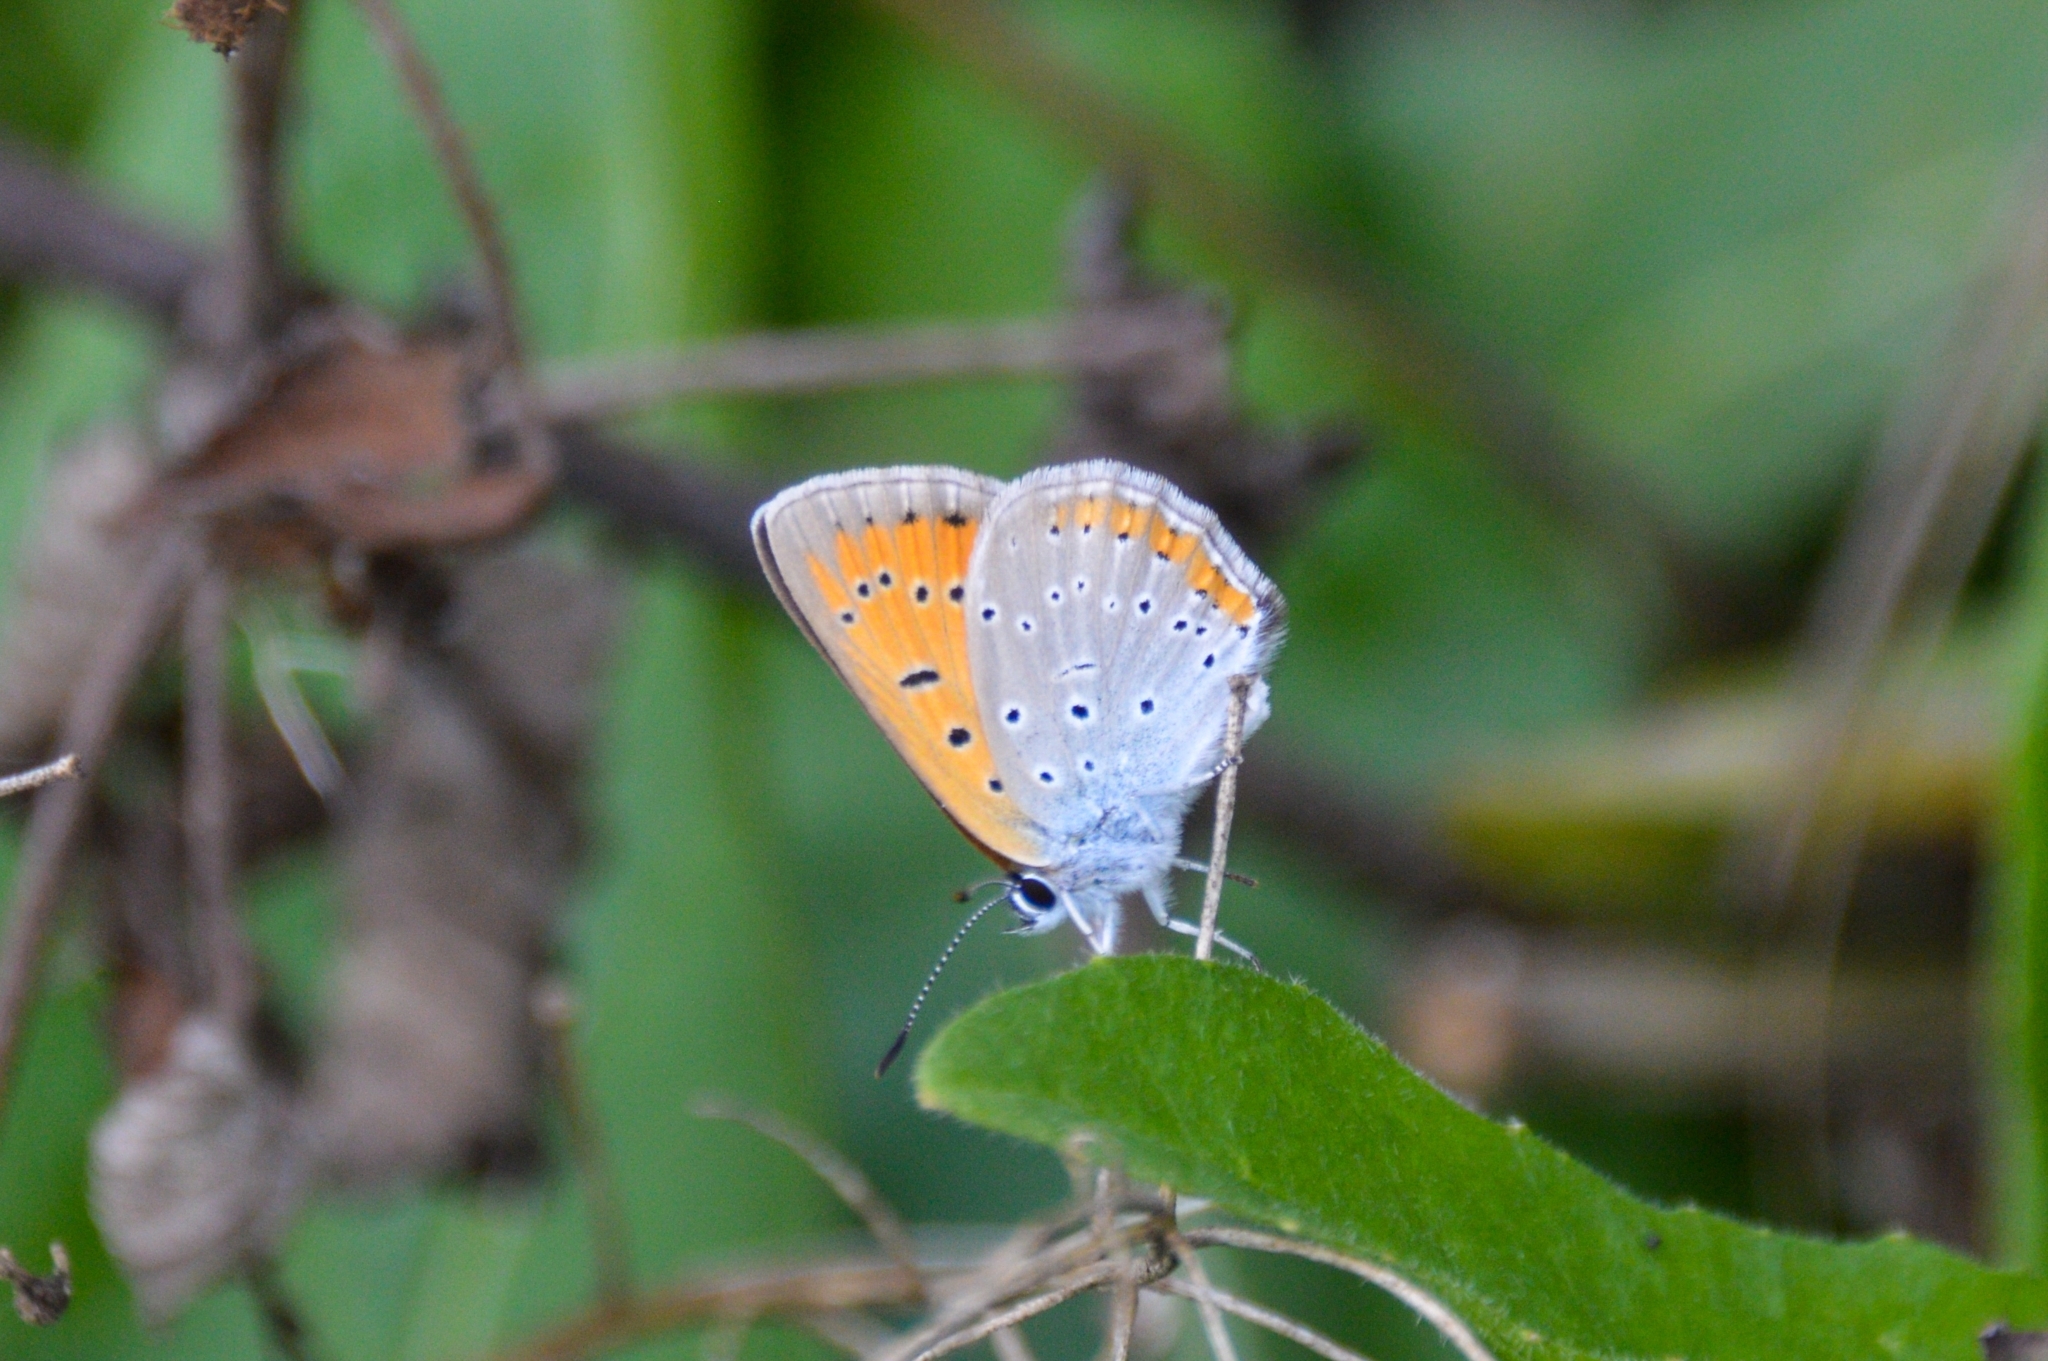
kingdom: Animalia
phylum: Arthropoda
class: Insecta
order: Lepidoptera
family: Lycaenidae
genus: Lycaena
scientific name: Lycaena dispar
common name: Large copper
